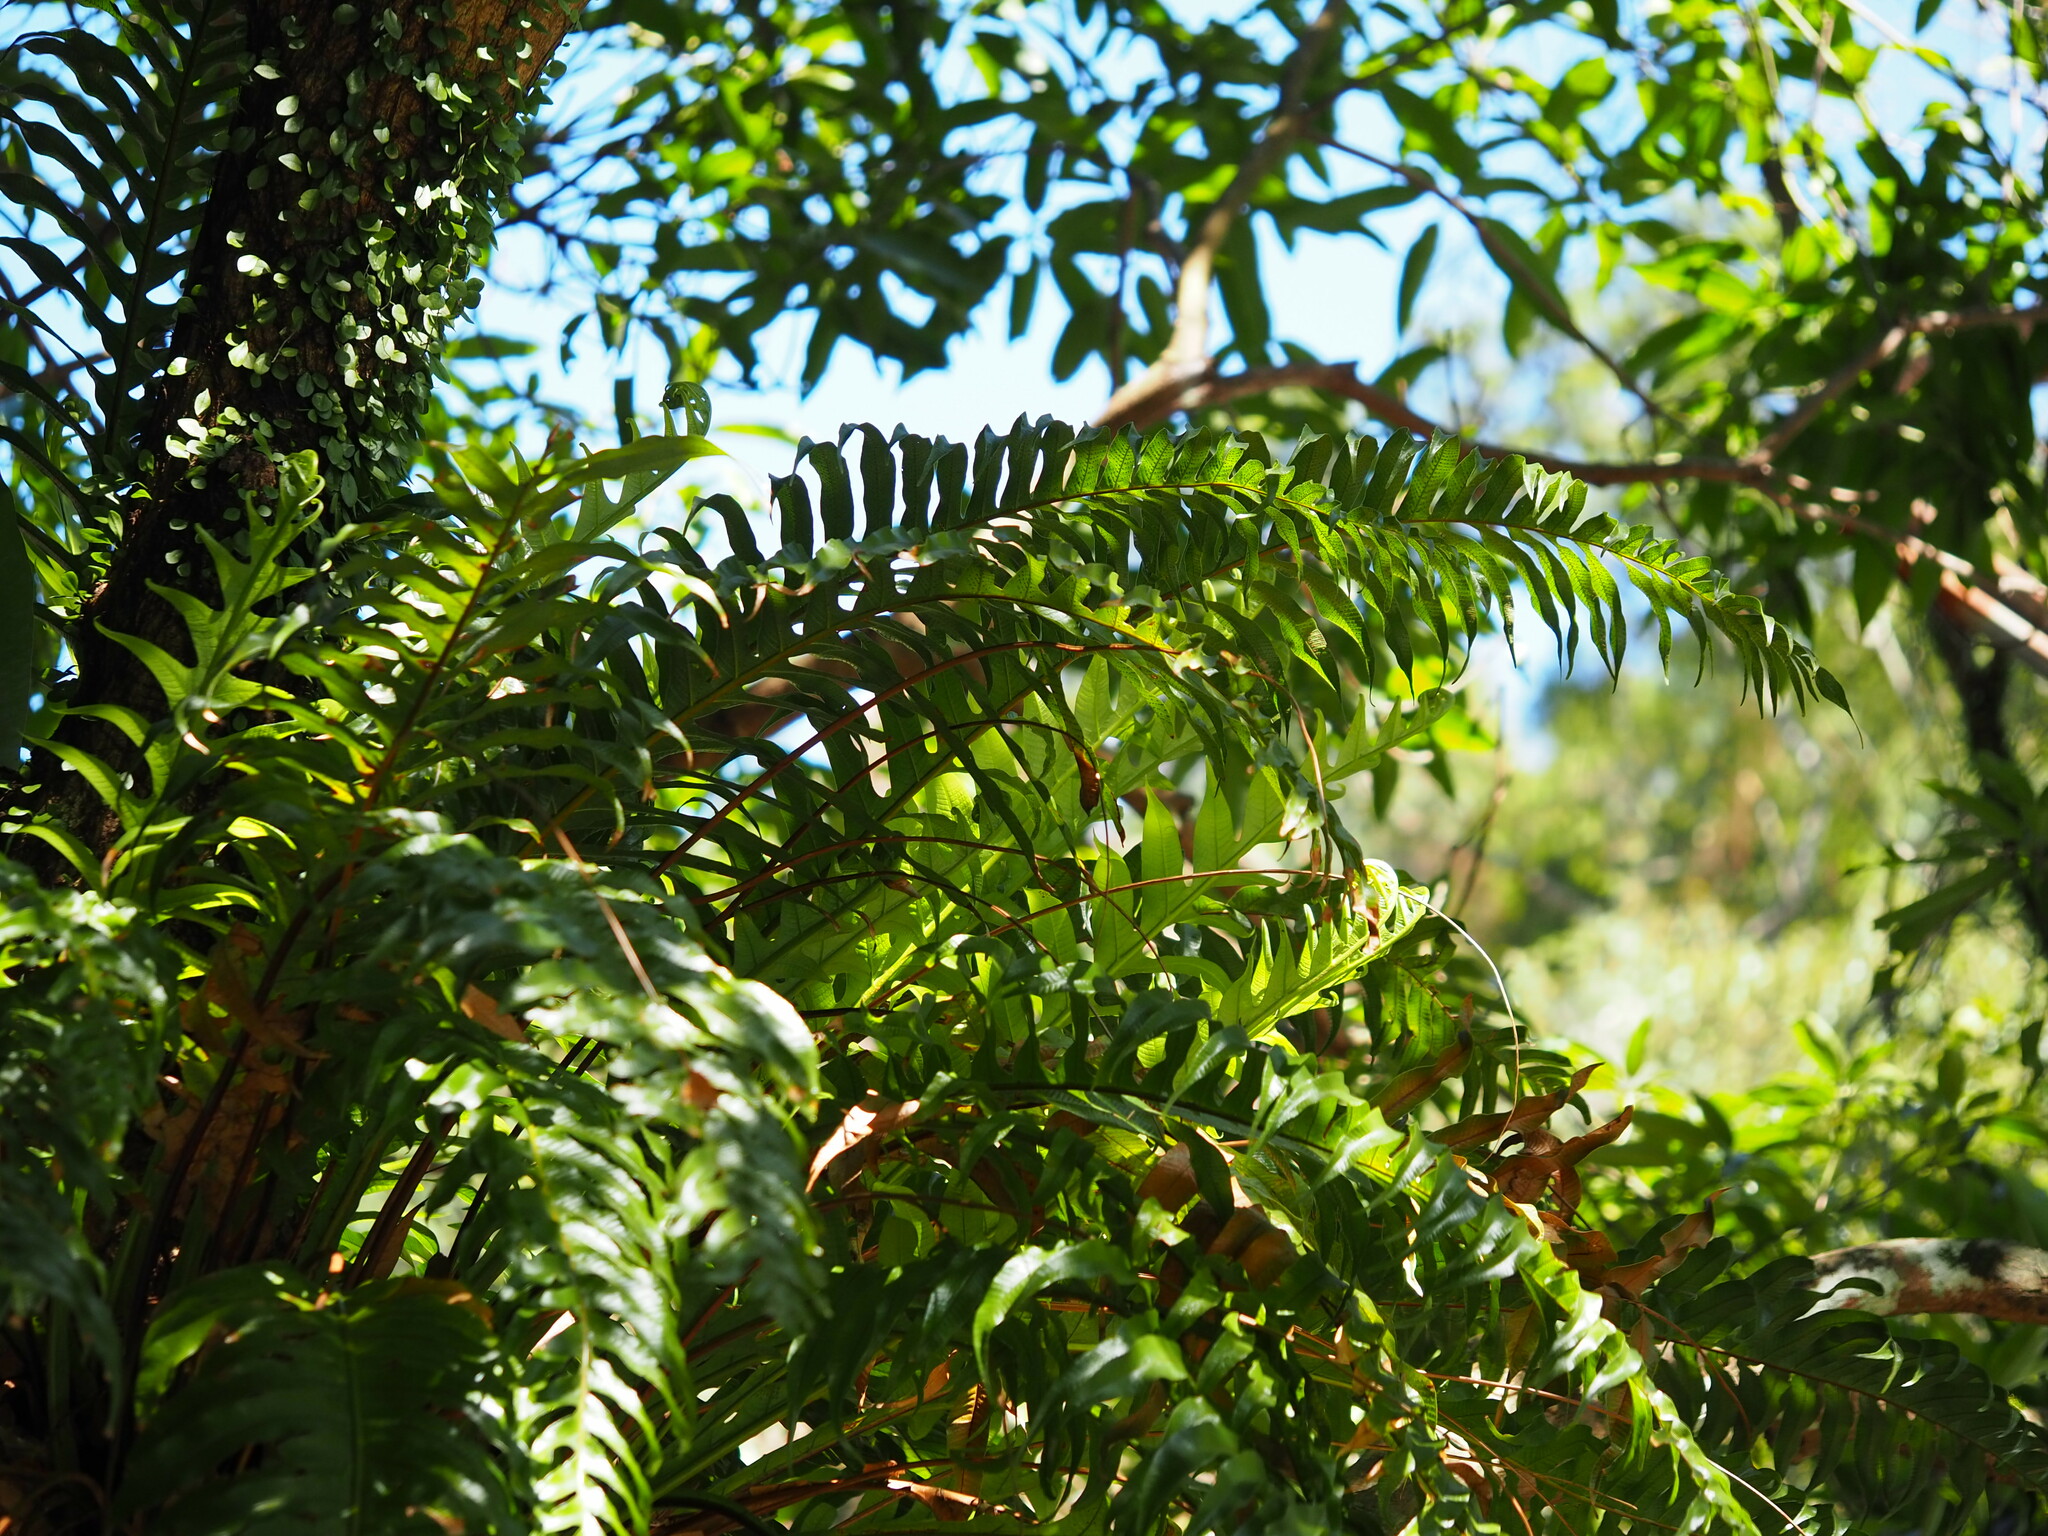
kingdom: Plantae
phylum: Tracheophyta
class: Polypodiopsida
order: Polypodiales
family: Polypodiaceae
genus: Drynaria
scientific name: Drynaria coronans
